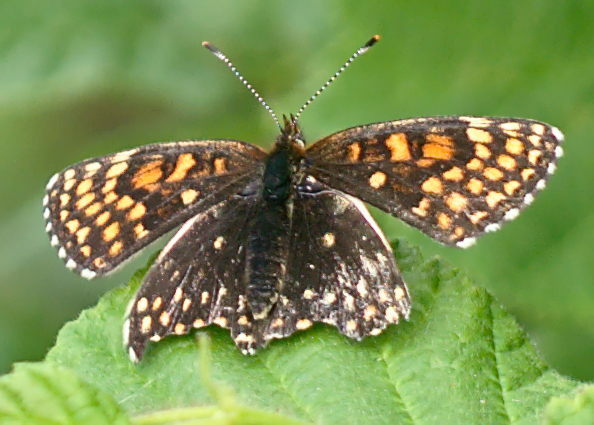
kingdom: Animalia
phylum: Arthropoda
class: Insecta
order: Lepidoptera
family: Nymphalidae
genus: Melitaea
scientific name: Melitaea diamina
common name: False heath fritillary
